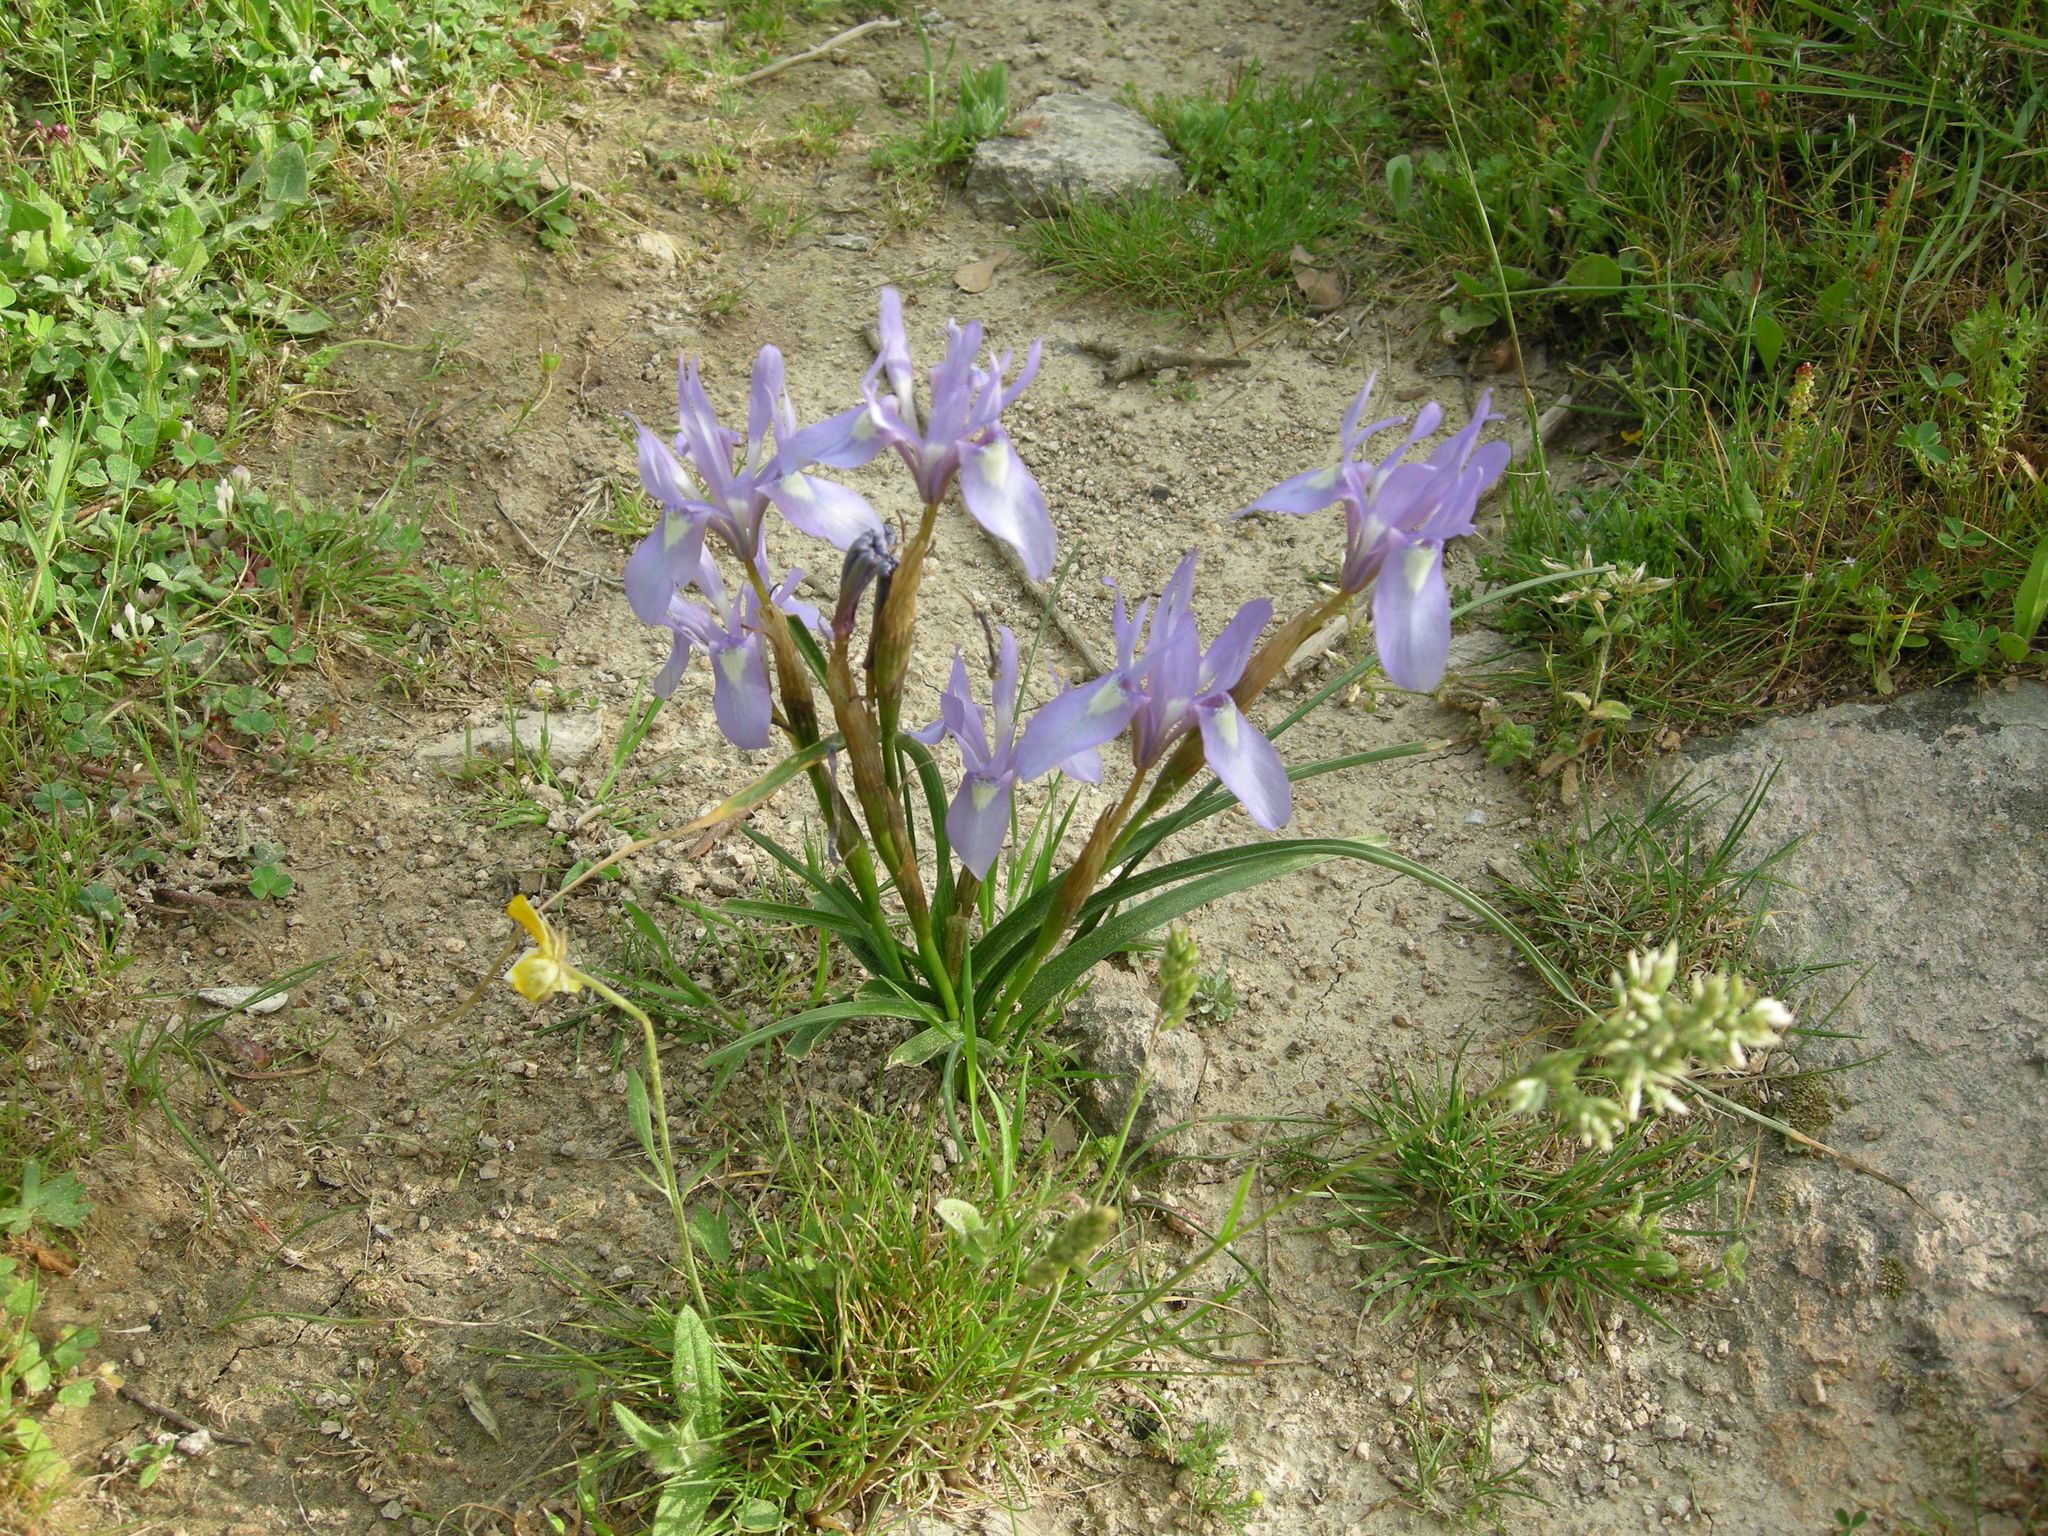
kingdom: Plantae
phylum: Tracheophyta
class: Liliopsida
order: Asparagales
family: Iridaceae
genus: Moraea
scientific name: Moraea sisyrinchium
